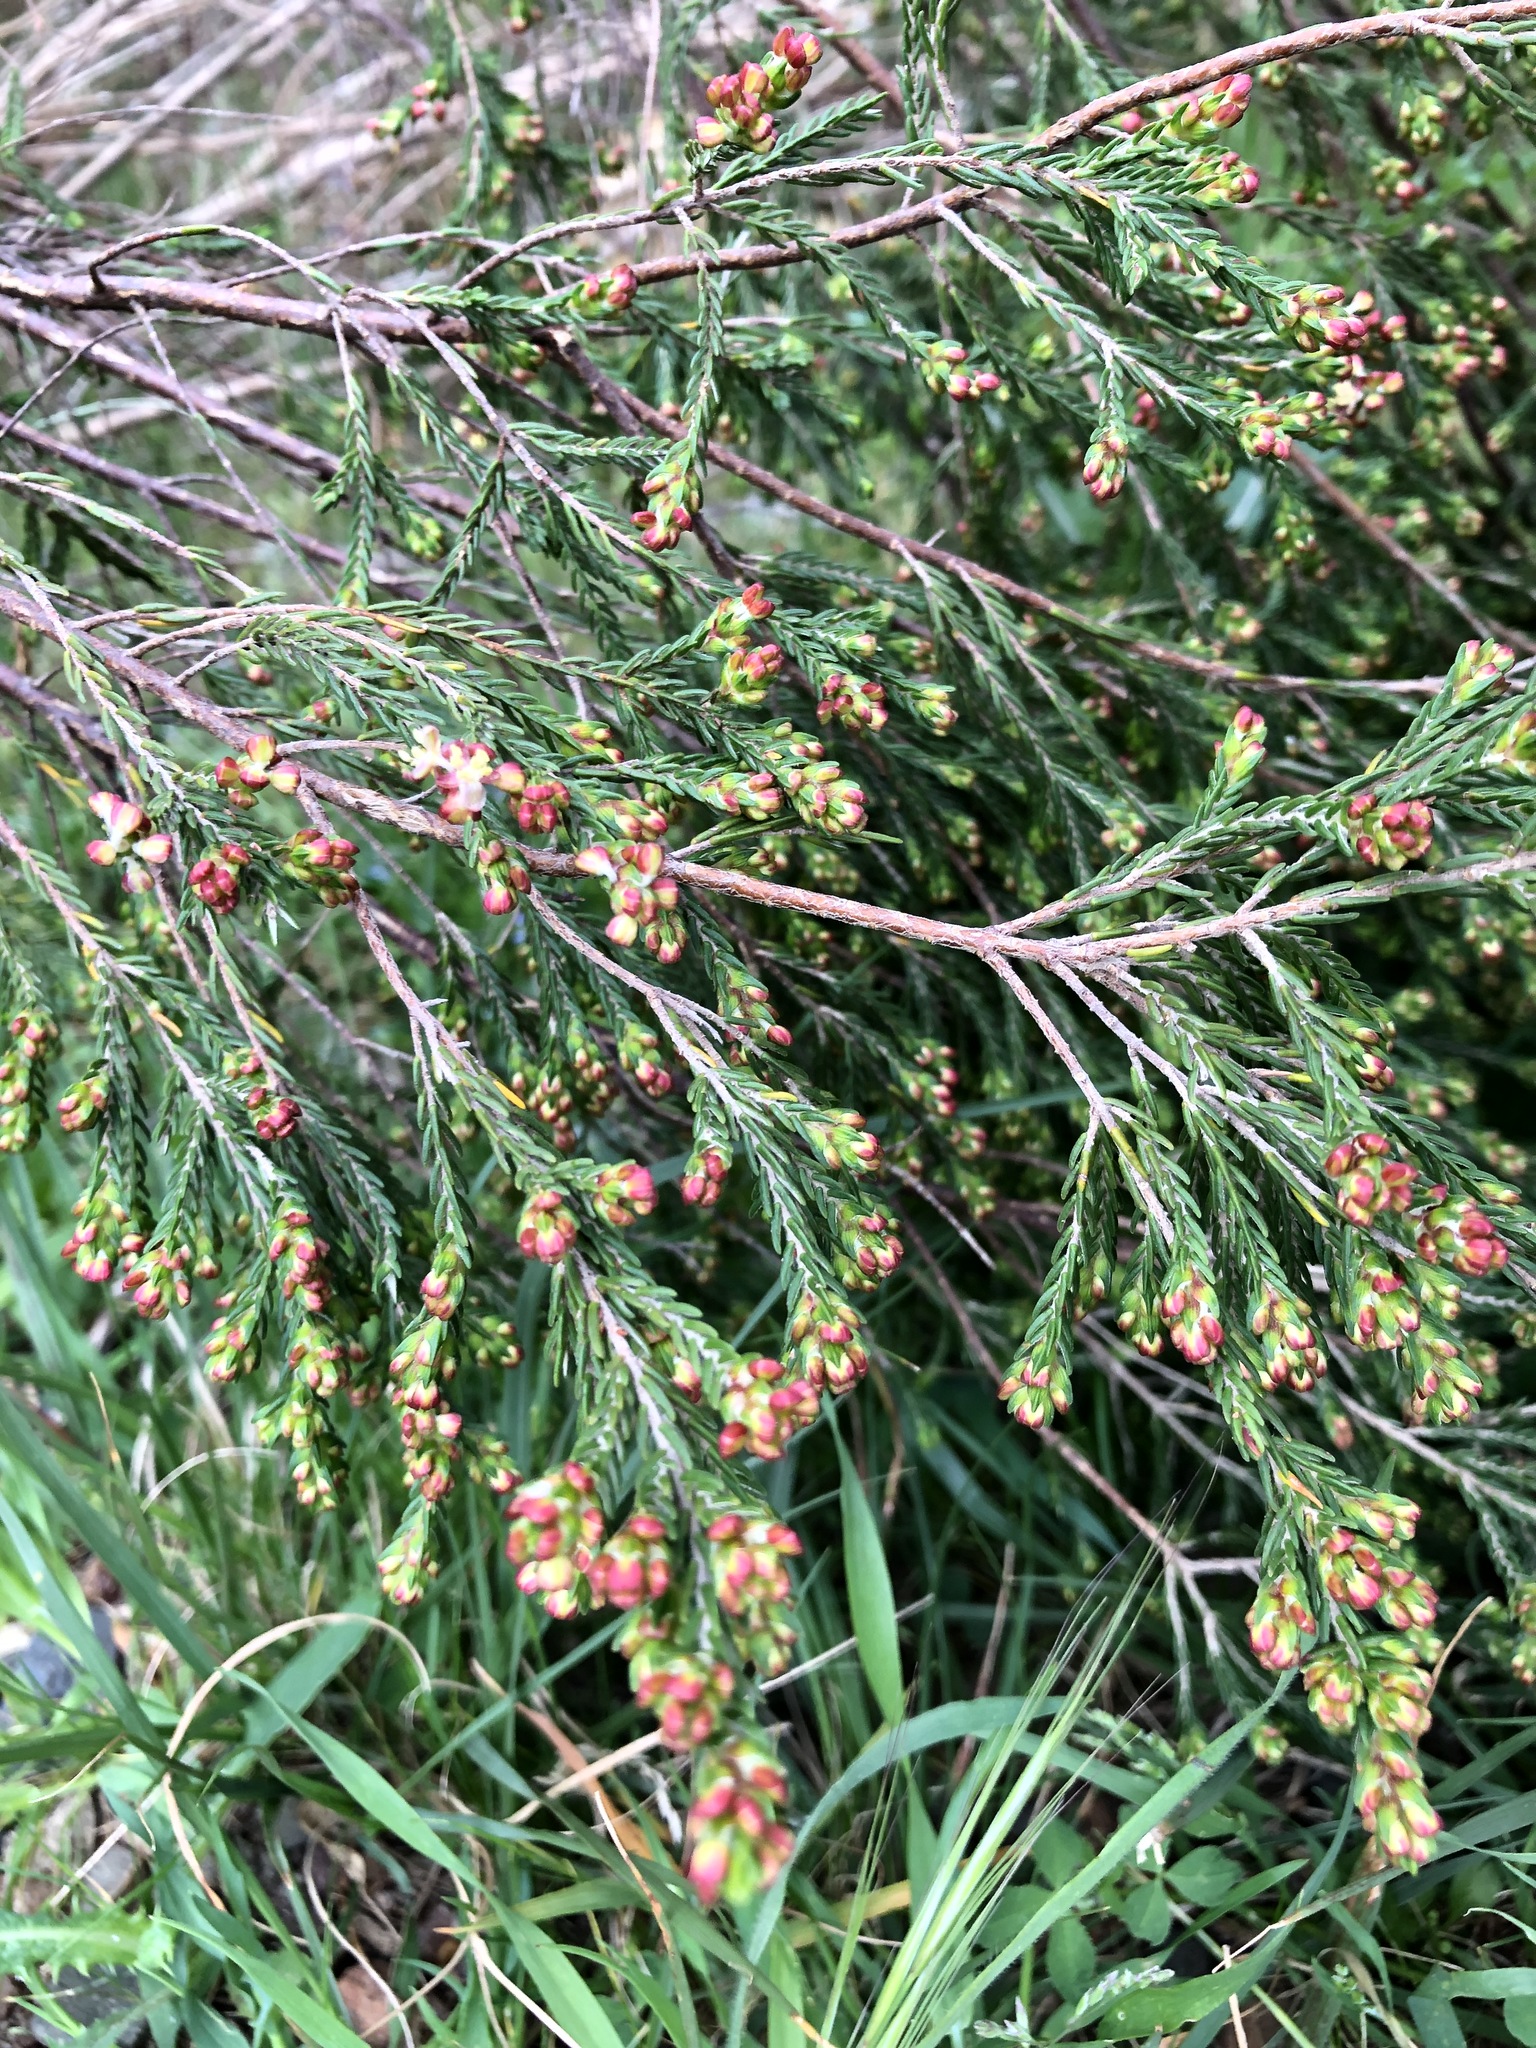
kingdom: Plantae
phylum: Tracheophyta
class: Magnoliopsida
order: Malvales
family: Thymelaeaceae
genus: Passerina
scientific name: Passerina corymbosa
